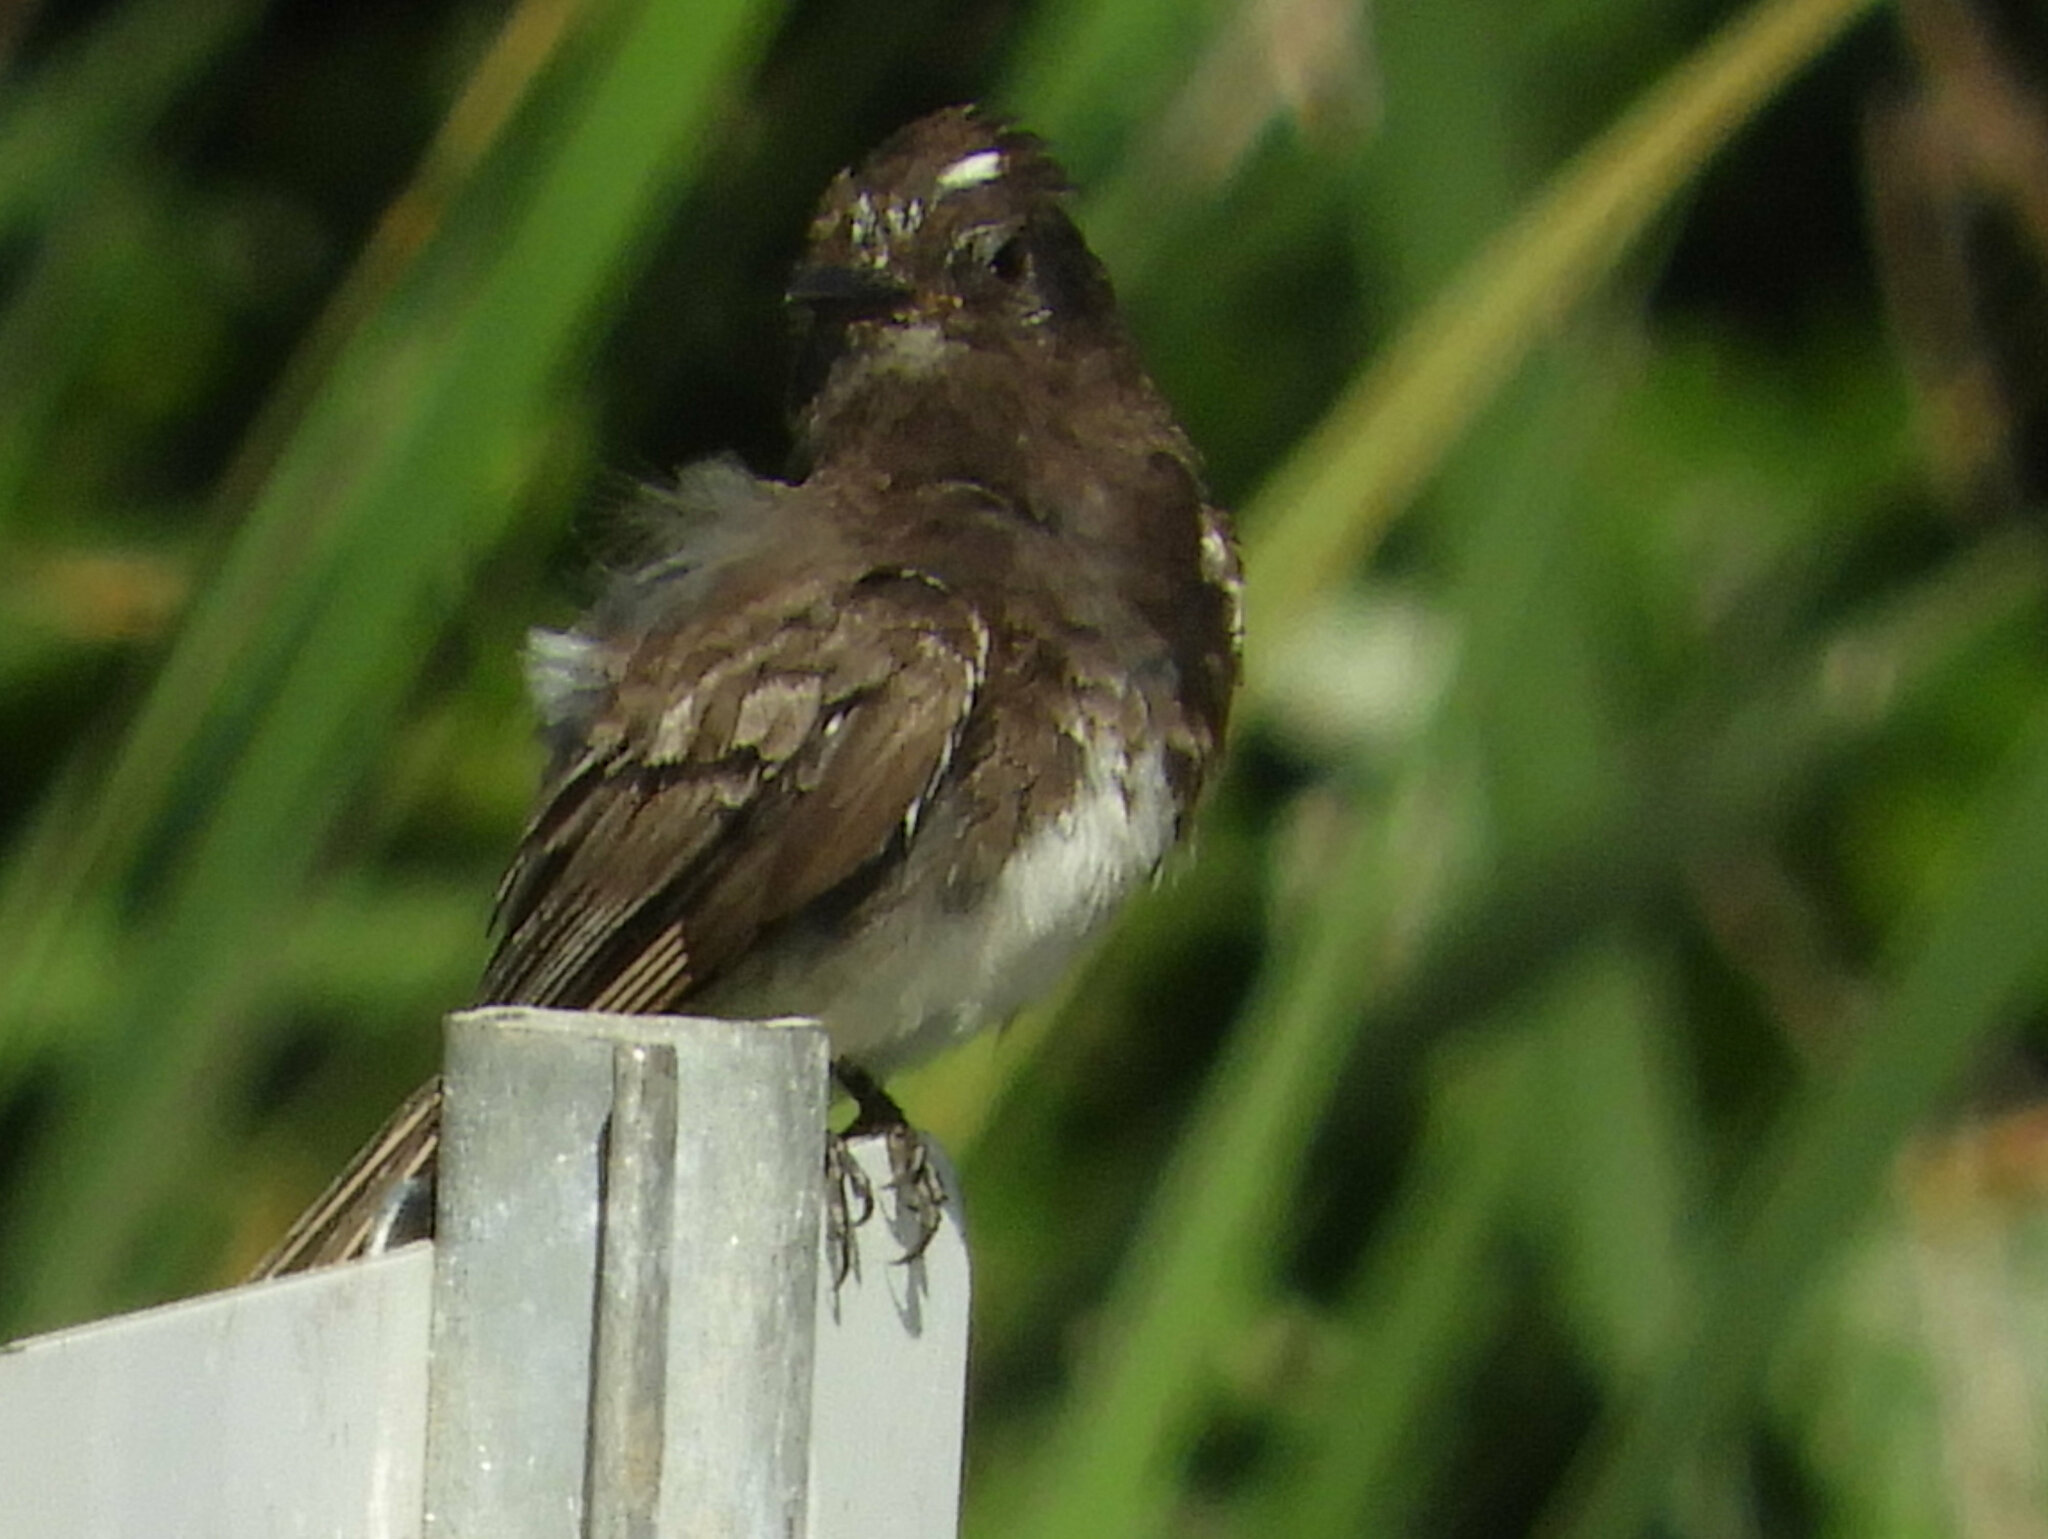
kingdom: Animalia
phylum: Chordata
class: Aves
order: Passeriformes
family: Tyrannidae
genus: Sayornis
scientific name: Sayornis nigricans
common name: Black phoebe
